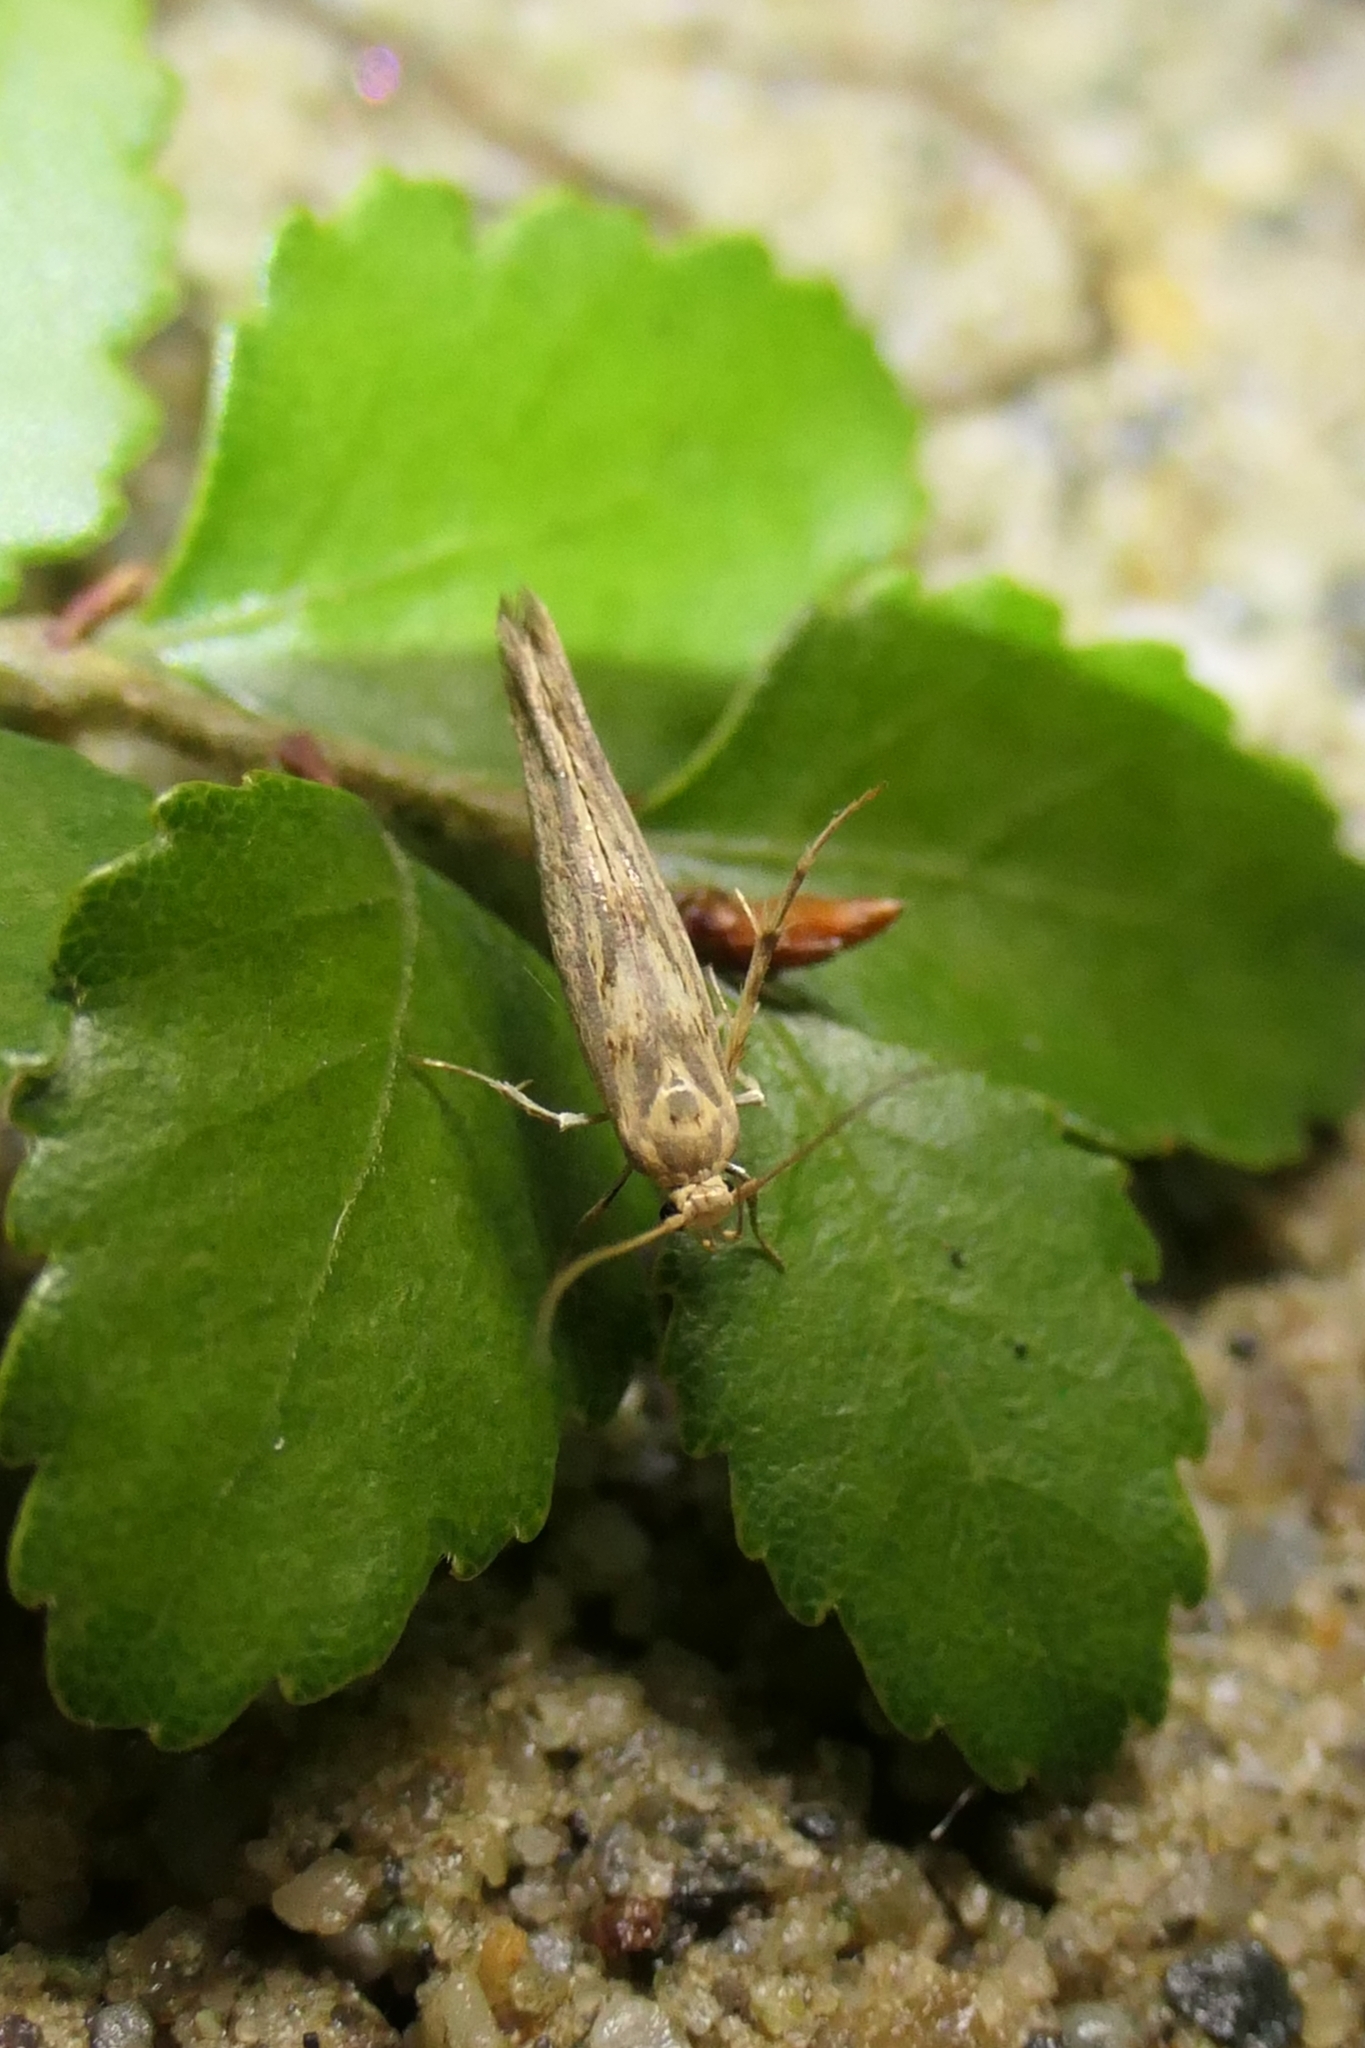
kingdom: Animalia
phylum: Arthropoda
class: Insecta
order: Lepidoptera
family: Stathmopodidae
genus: Stathmopoda
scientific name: Stathmopoda plumbiflua
